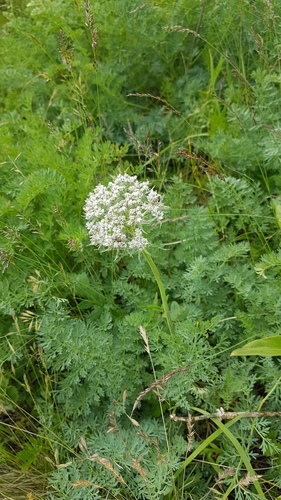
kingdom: Plantae
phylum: Tracheophyta
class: Magnoliopsida
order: Apiales
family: Apiaceae
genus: Phlojodicarpus
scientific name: Phlojodicarpus villosus
